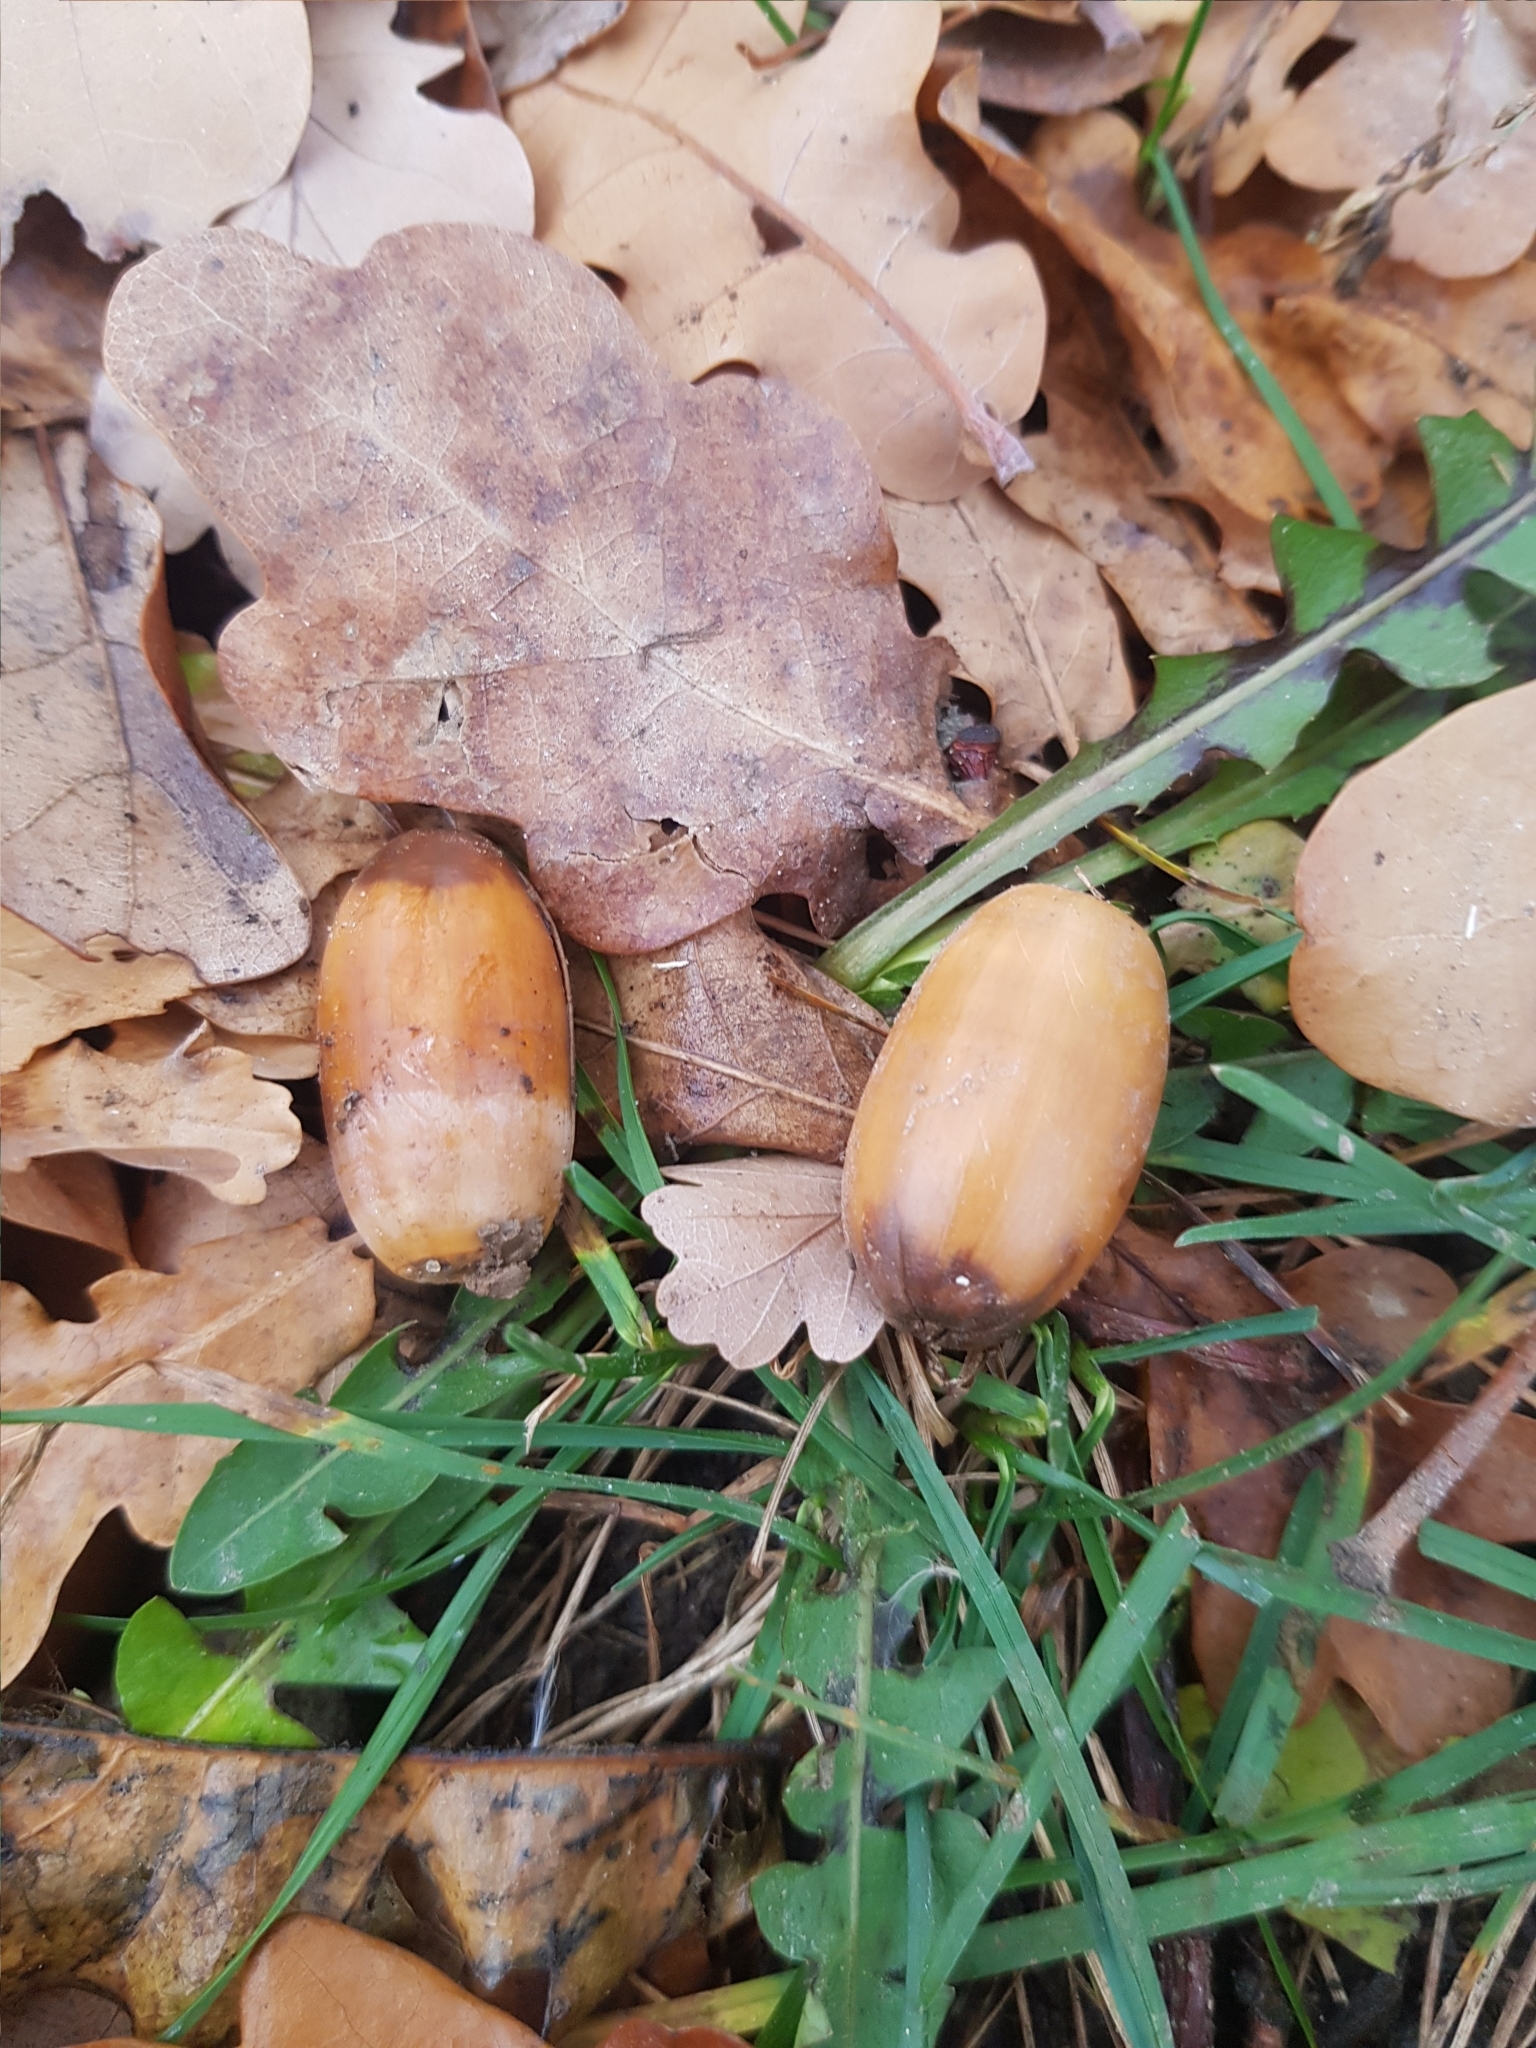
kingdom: Plantae
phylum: Tracheophyta
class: Magnoliopsida
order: Fagales
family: Fagaceae
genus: Quercus
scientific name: Quercus robur
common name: Pedunculate oak
